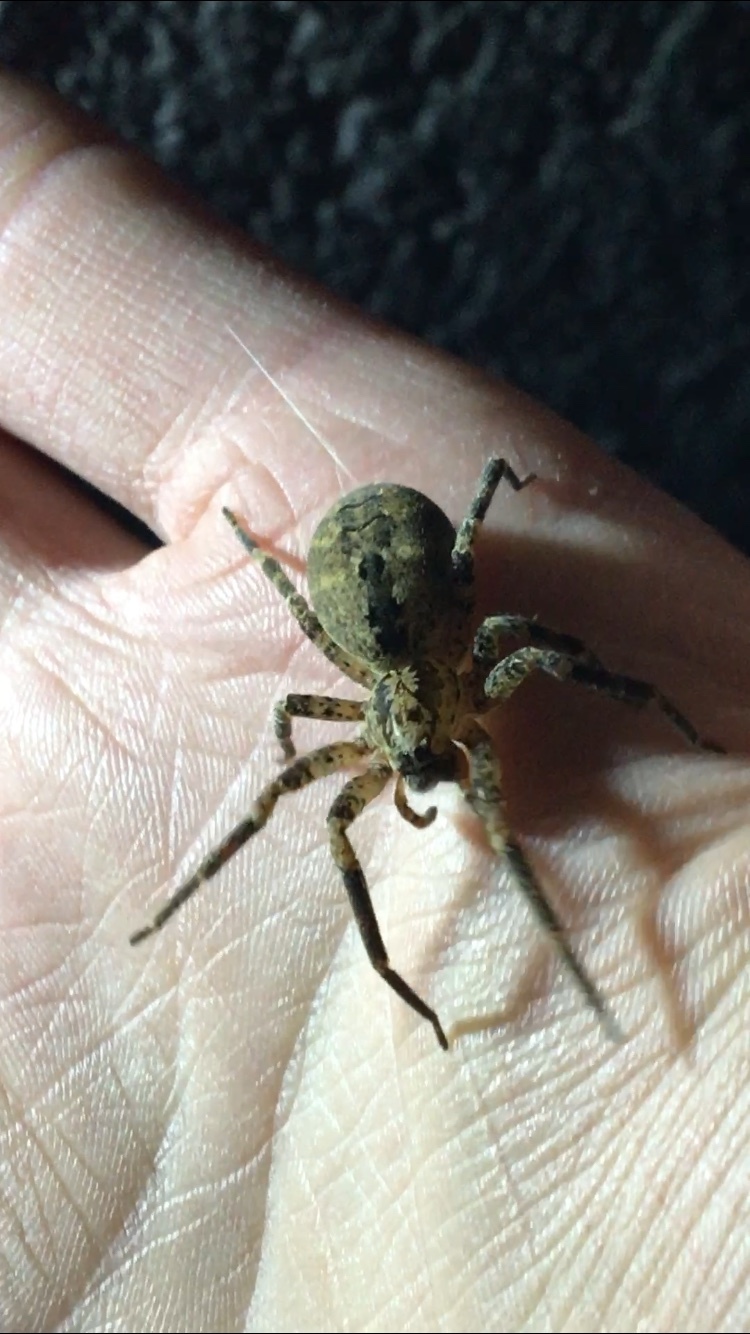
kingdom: Animalia
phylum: Arthropoda
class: Arachnida
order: Araneae
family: Zoropsidae
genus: Zoropsis
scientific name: Zoropsis spinimana
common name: Zoropsid spider
